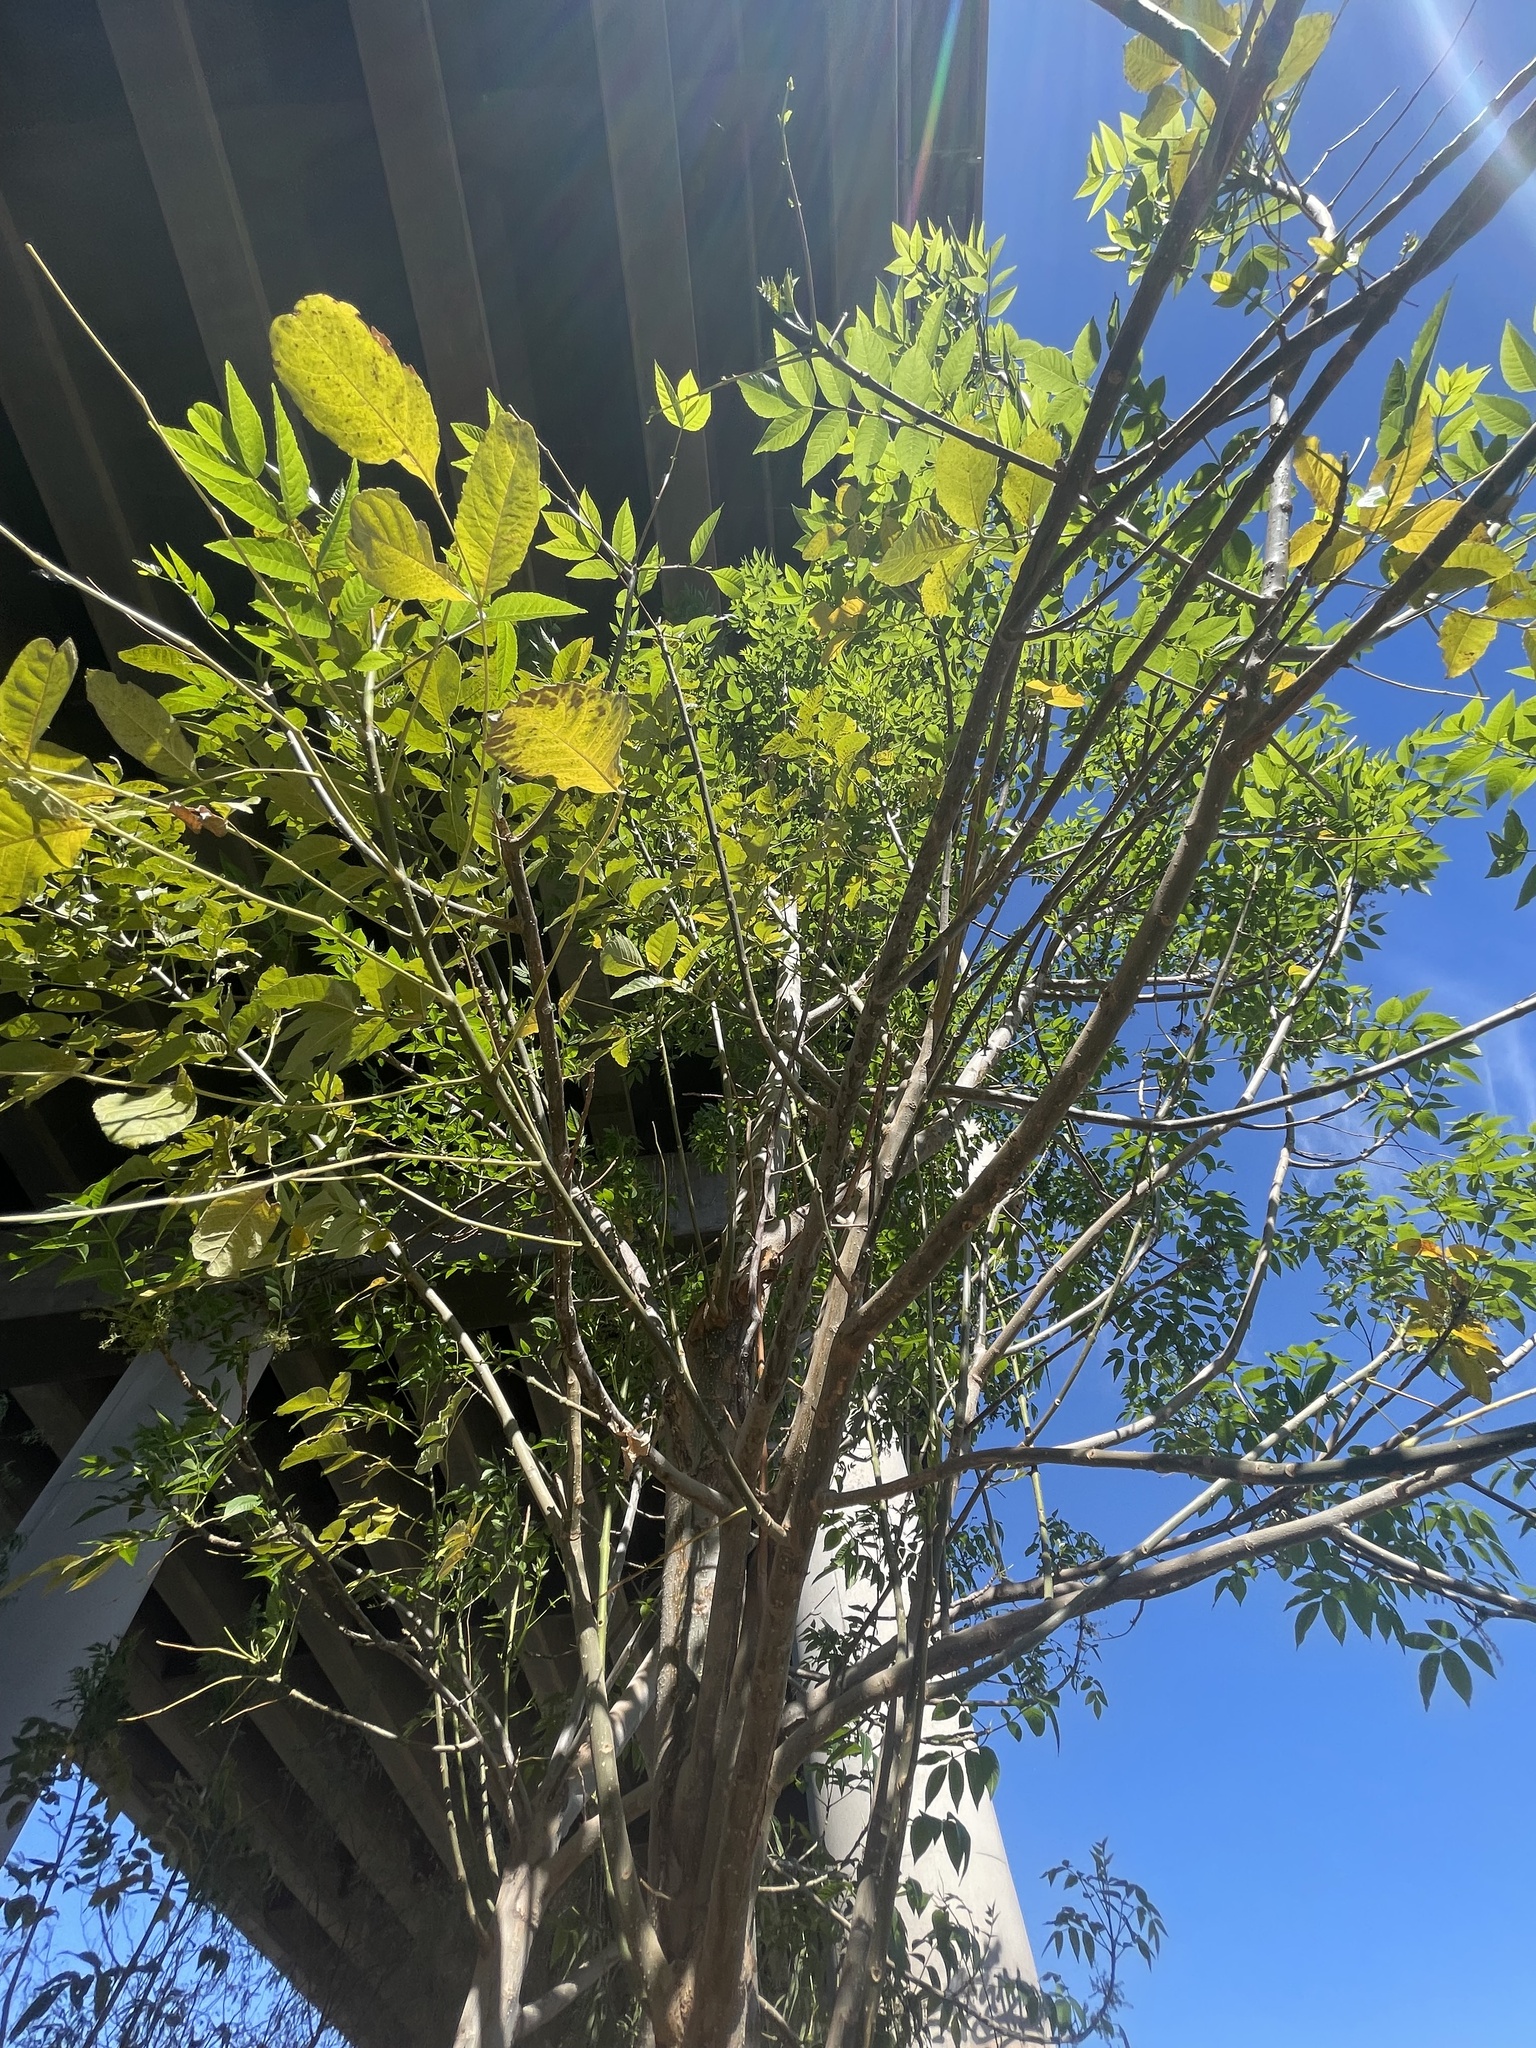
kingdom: Plantae
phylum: Tracheophyta
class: Magnoliopsida
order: Lamiales
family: Oleaceae
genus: Fraxinus
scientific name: Fraxinus velutina
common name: Arizon ash
